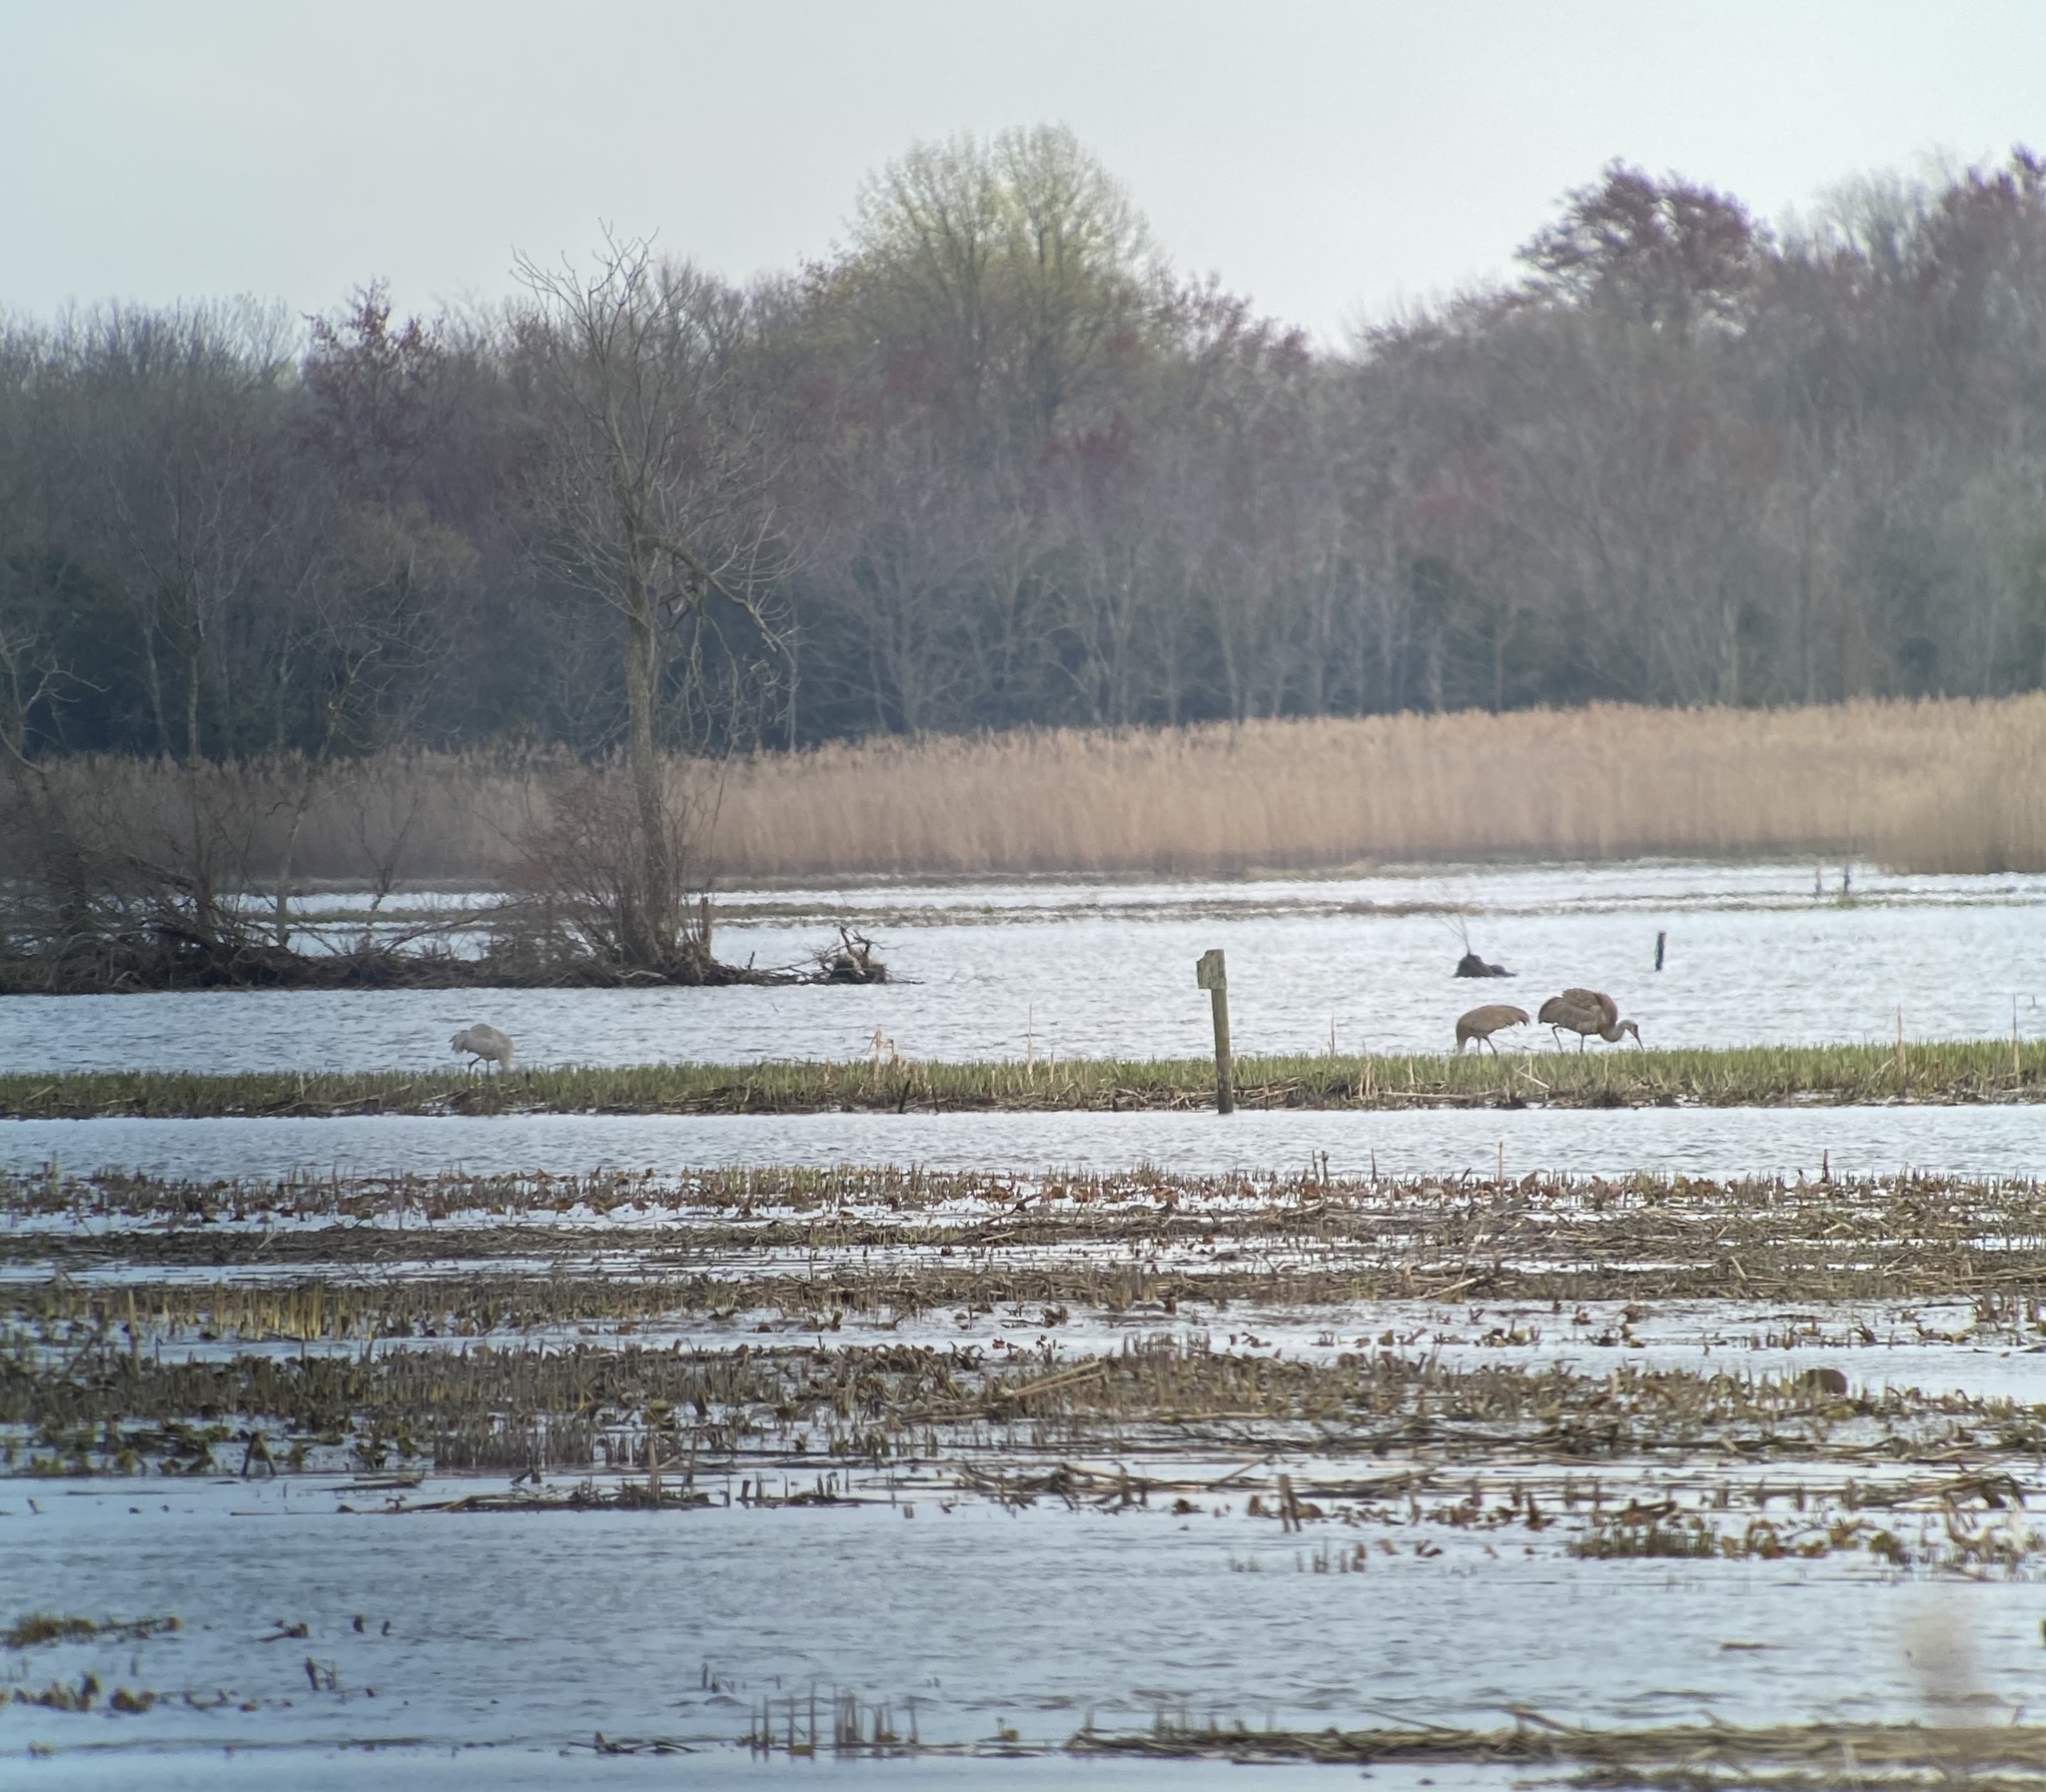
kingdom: Animalia
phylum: Chordata
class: Aves
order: Gruiformes
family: Gruidae
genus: Grus
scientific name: Grus canadensis
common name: Sandhill crane
